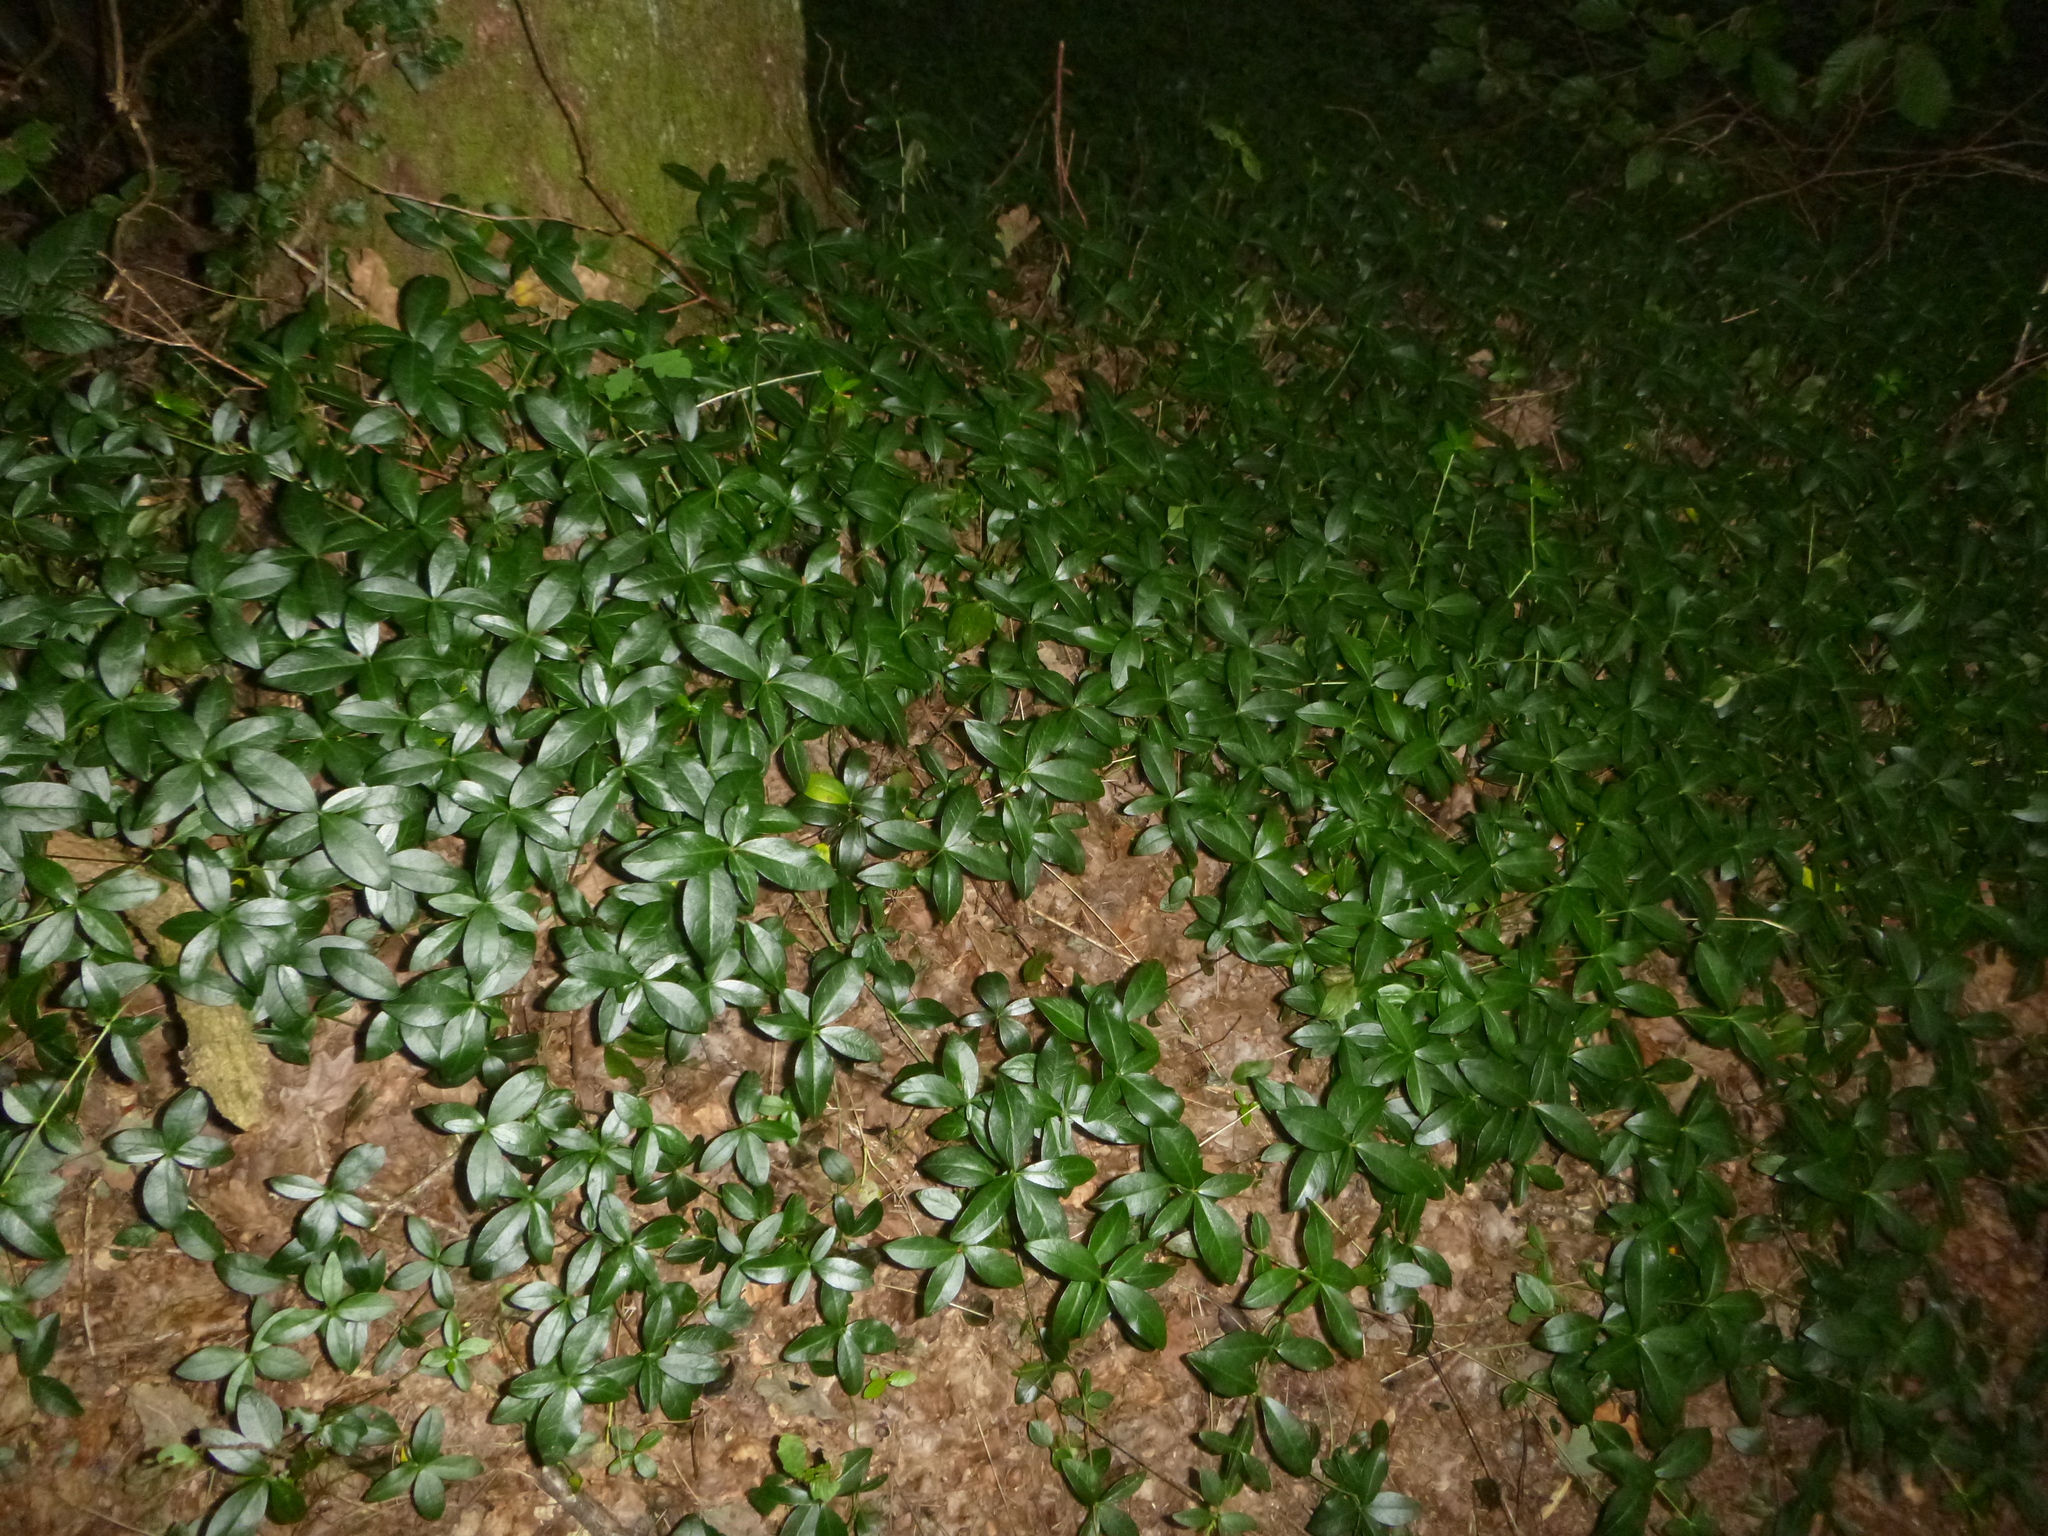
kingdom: Plantae
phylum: Tracheophyta
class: Magnoliopsida
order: Gentianales
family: Apocynaceae
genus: Vinca
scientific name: Vinca minor
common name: Lesser periwinkle
